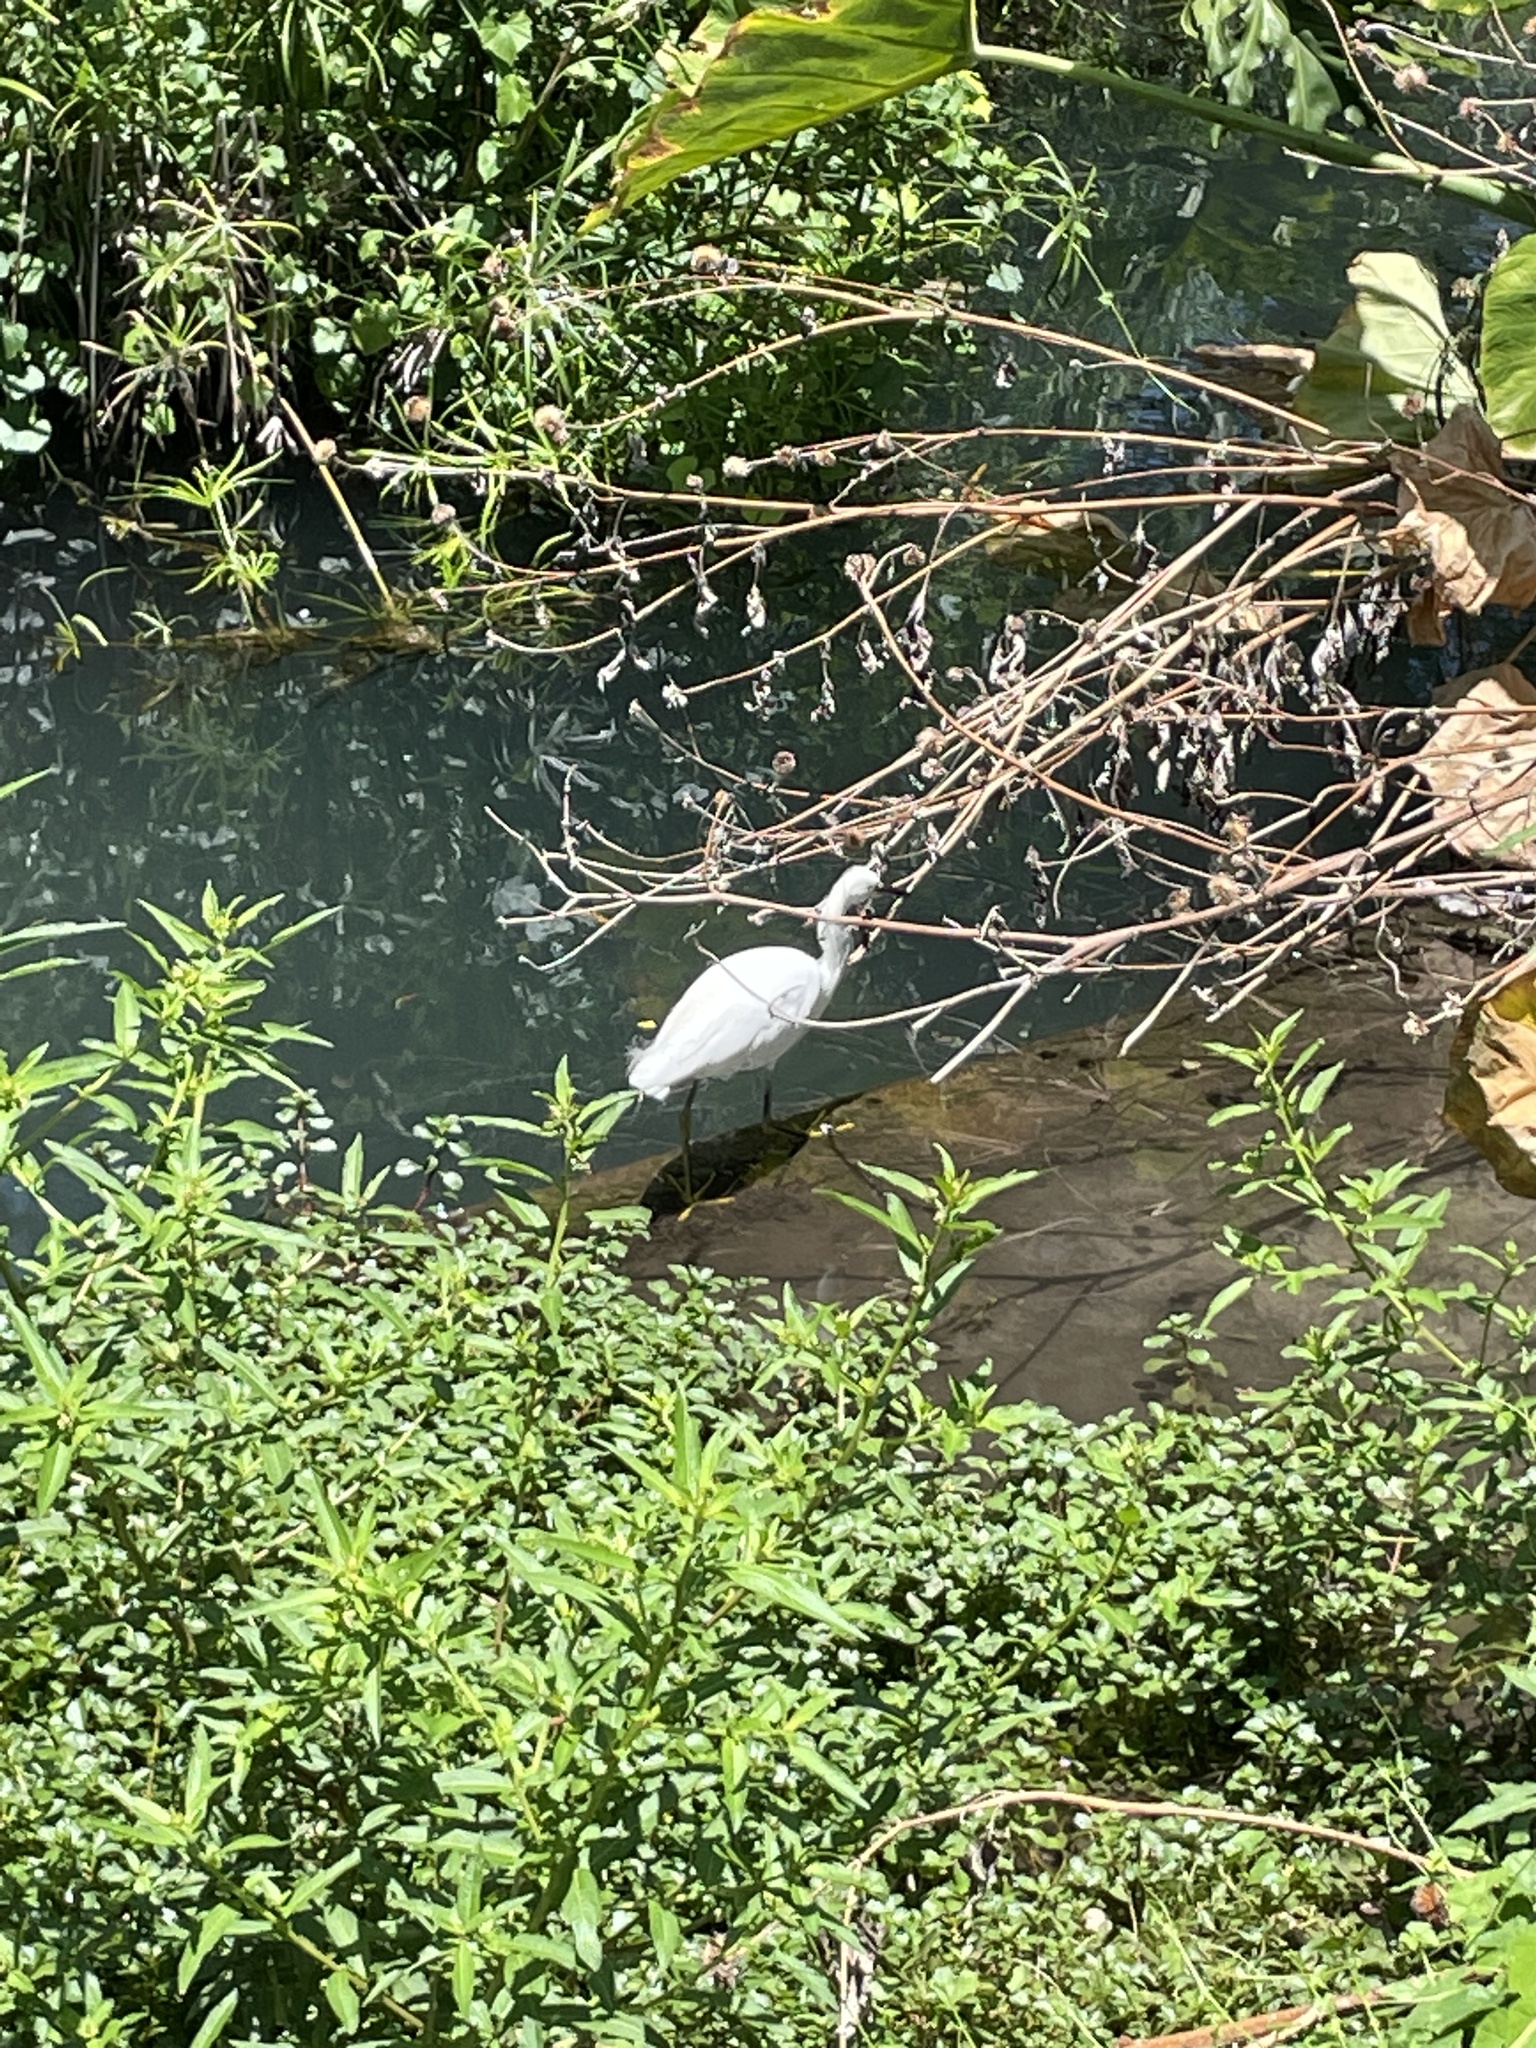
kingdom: Animalia
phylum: Chordata
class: Aves
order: Pelecaniformes
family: Ardeidae
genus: Egretta
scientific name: Egretta thula
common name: Snowy egret
